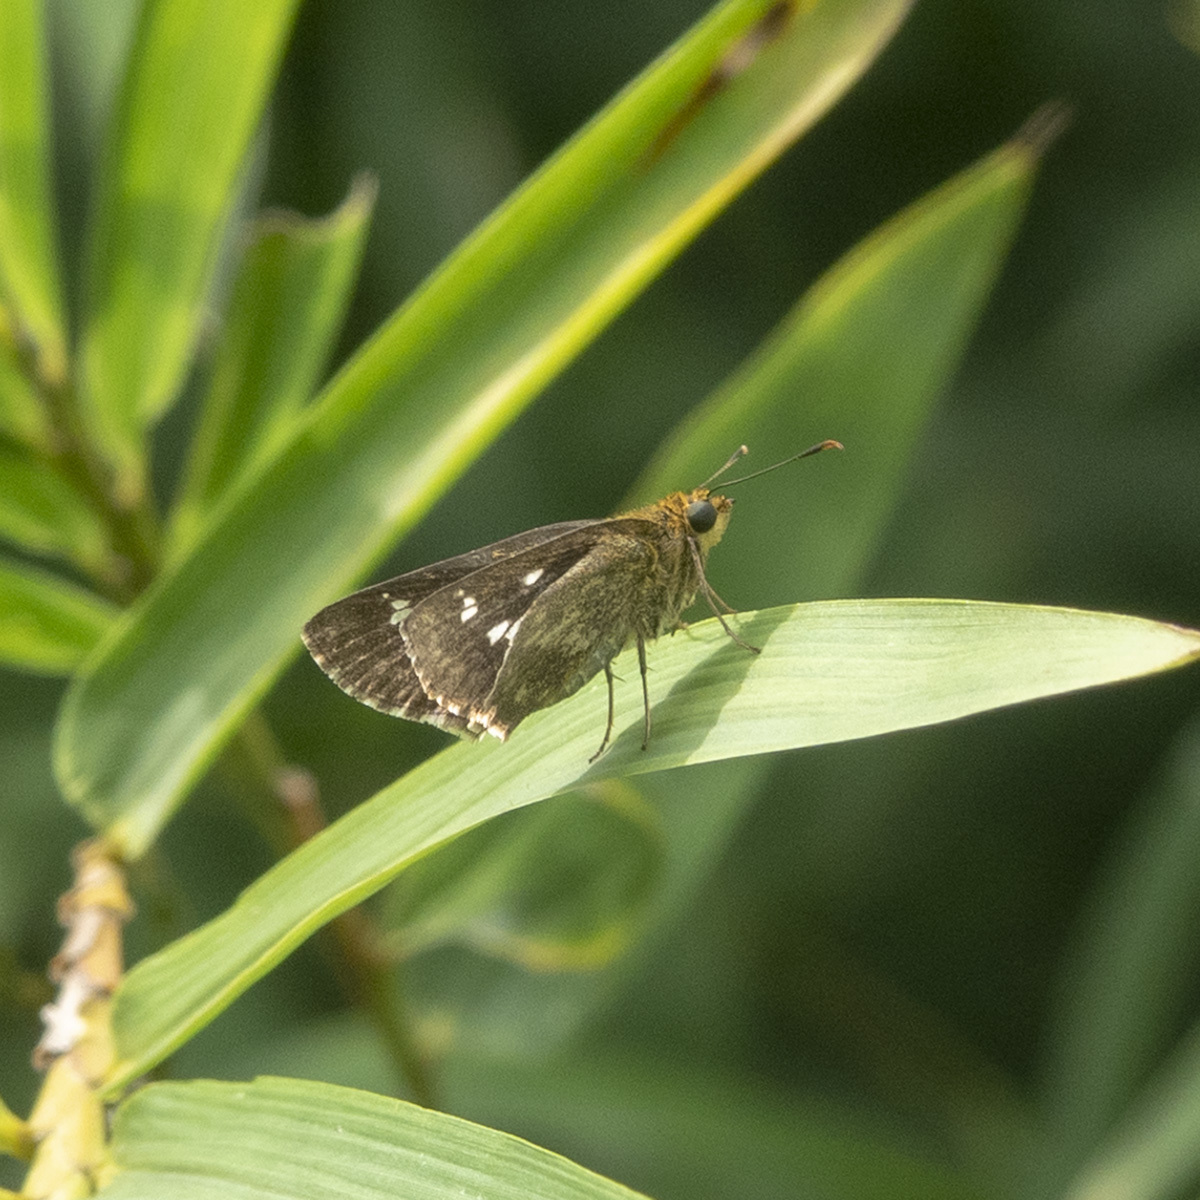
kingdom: Animalia
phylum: Arthropoda
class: Insecta
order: Lepidoptera
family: Hesperiidae
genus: Halpe
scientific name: Halpe homolea
